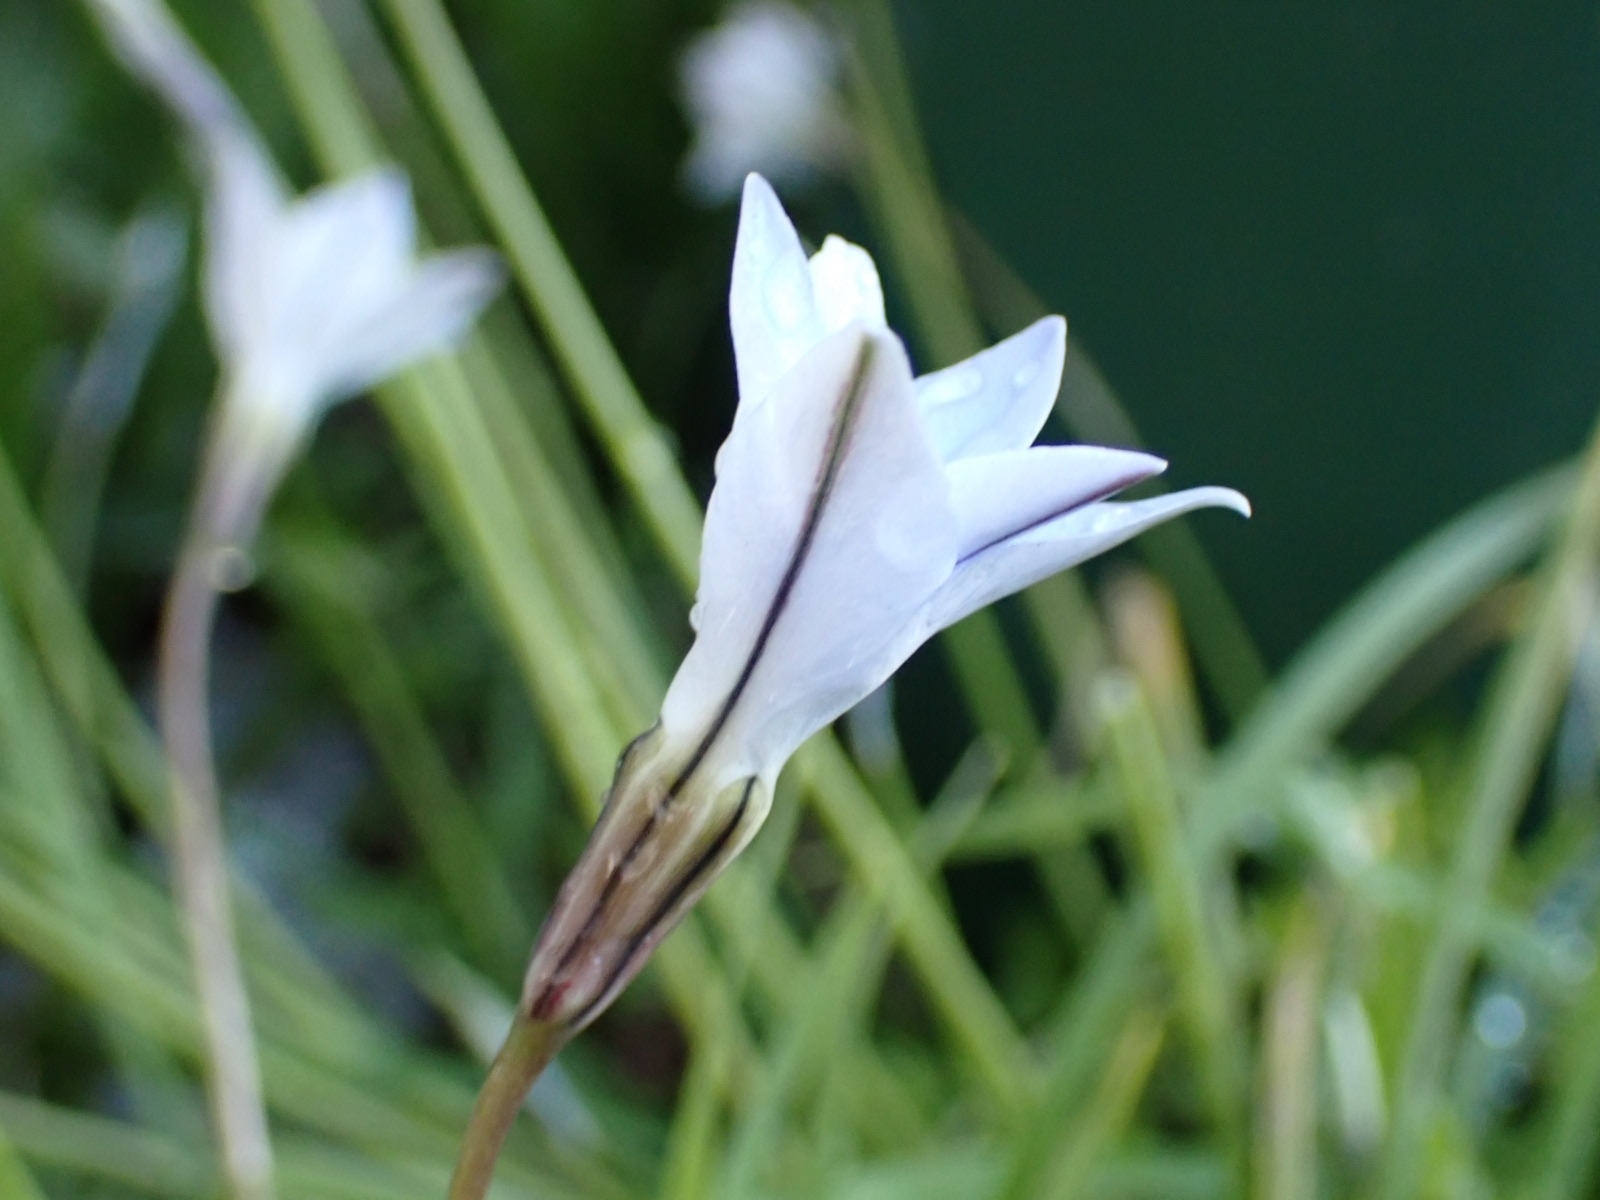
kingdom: Plantae
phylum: Tracheophyta
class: Liliopsida
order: Asparagales
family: Amaryllidaceae
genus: Ipheion
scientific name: Ipheion uniflorum
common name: Spring starflower
